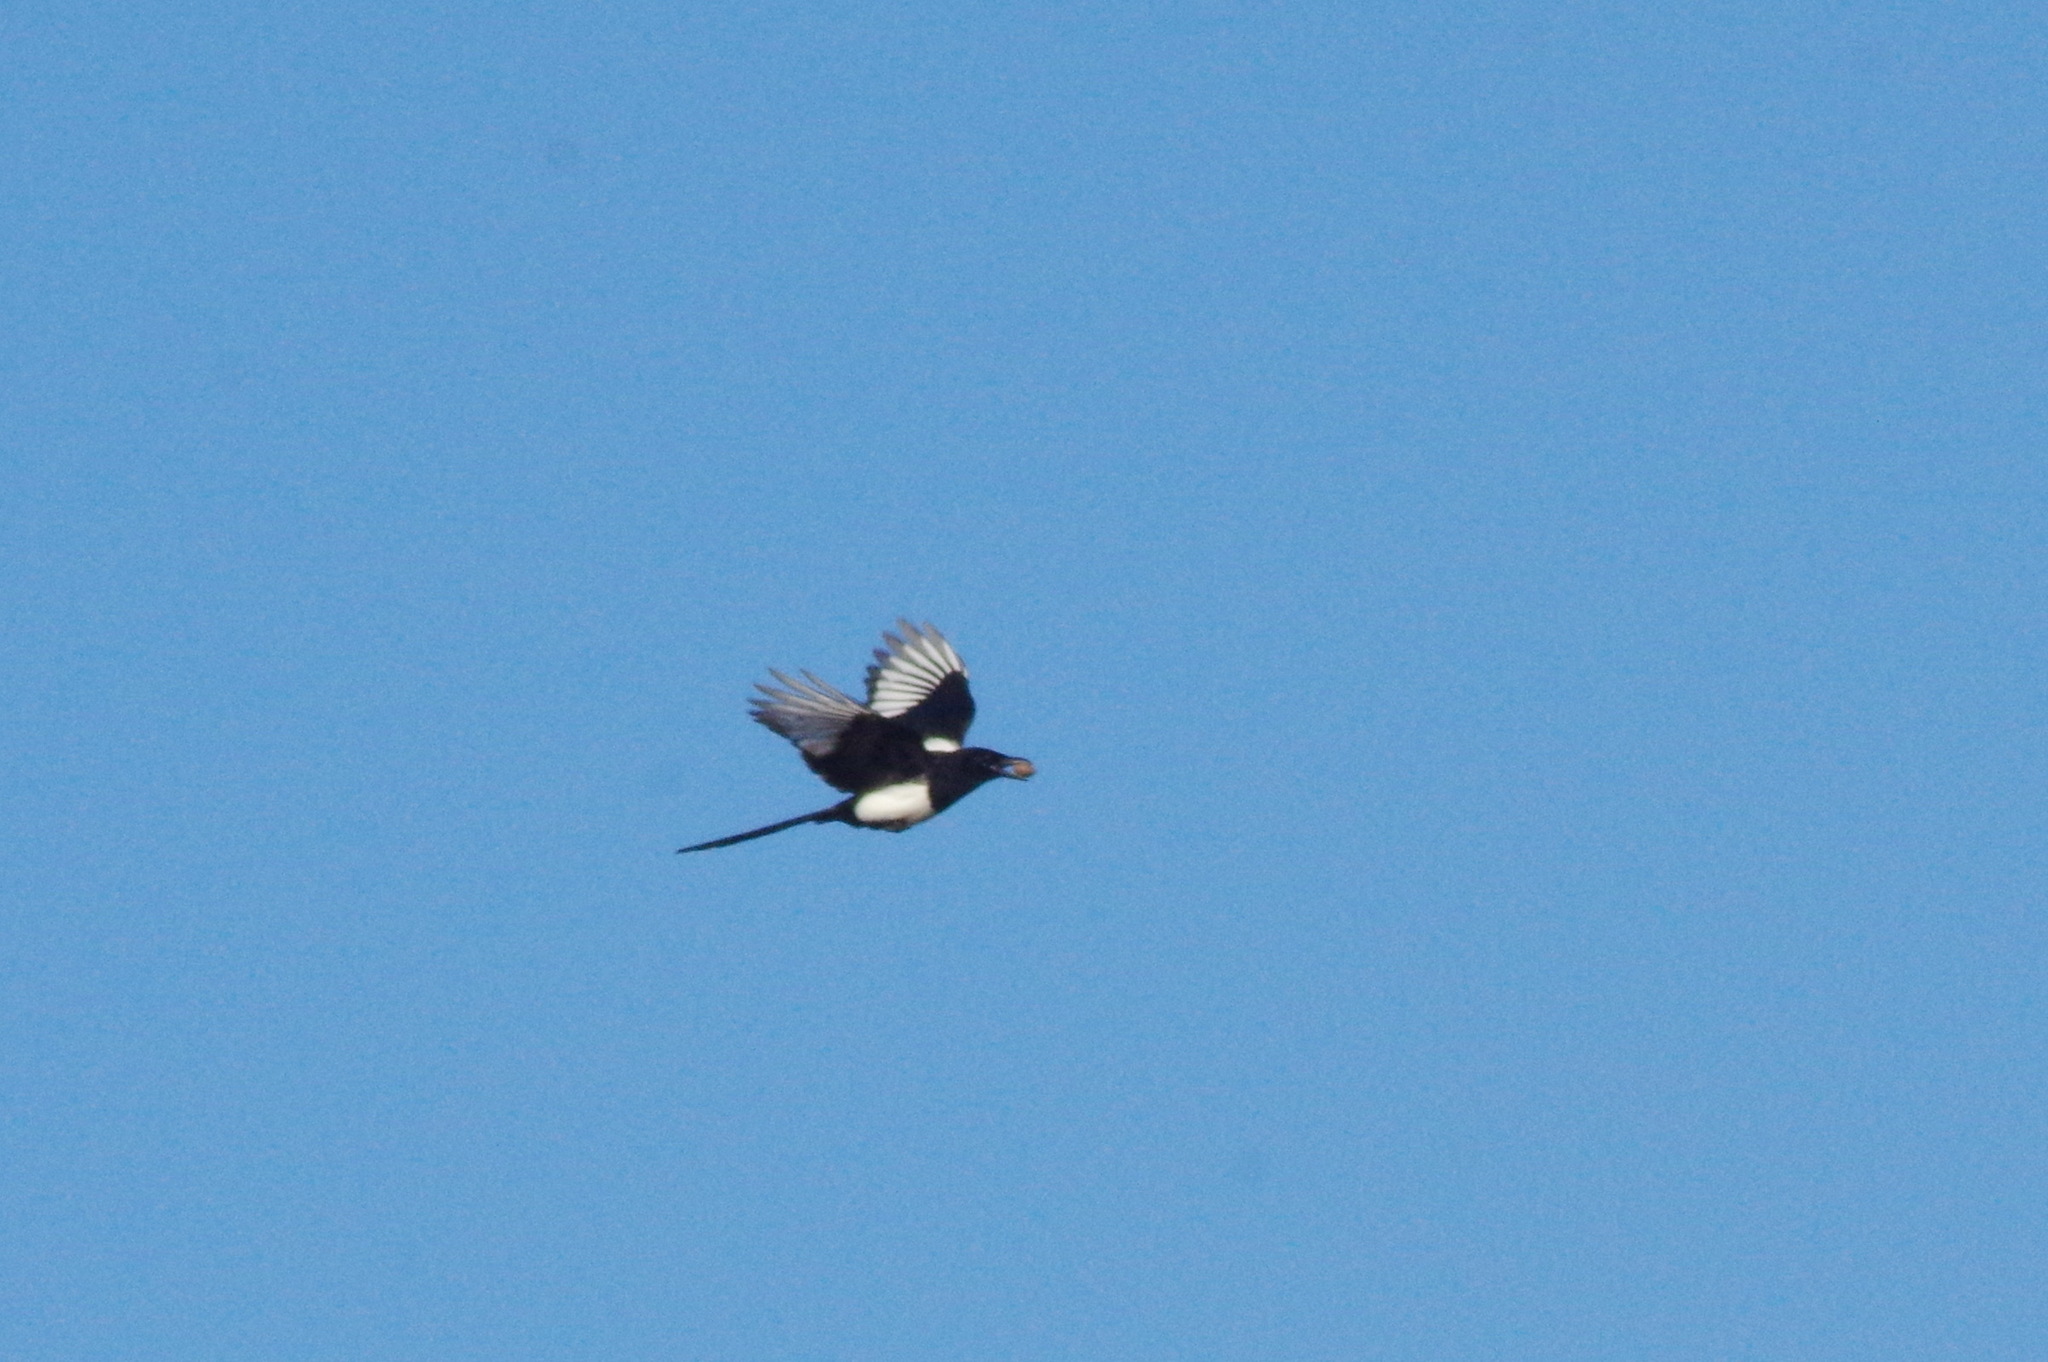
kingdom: Animalia
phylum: Chordata
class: Aves
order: Passeriformes
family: Corvidae
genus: Pica
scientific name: Pica pica
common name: Eurasian magpie
